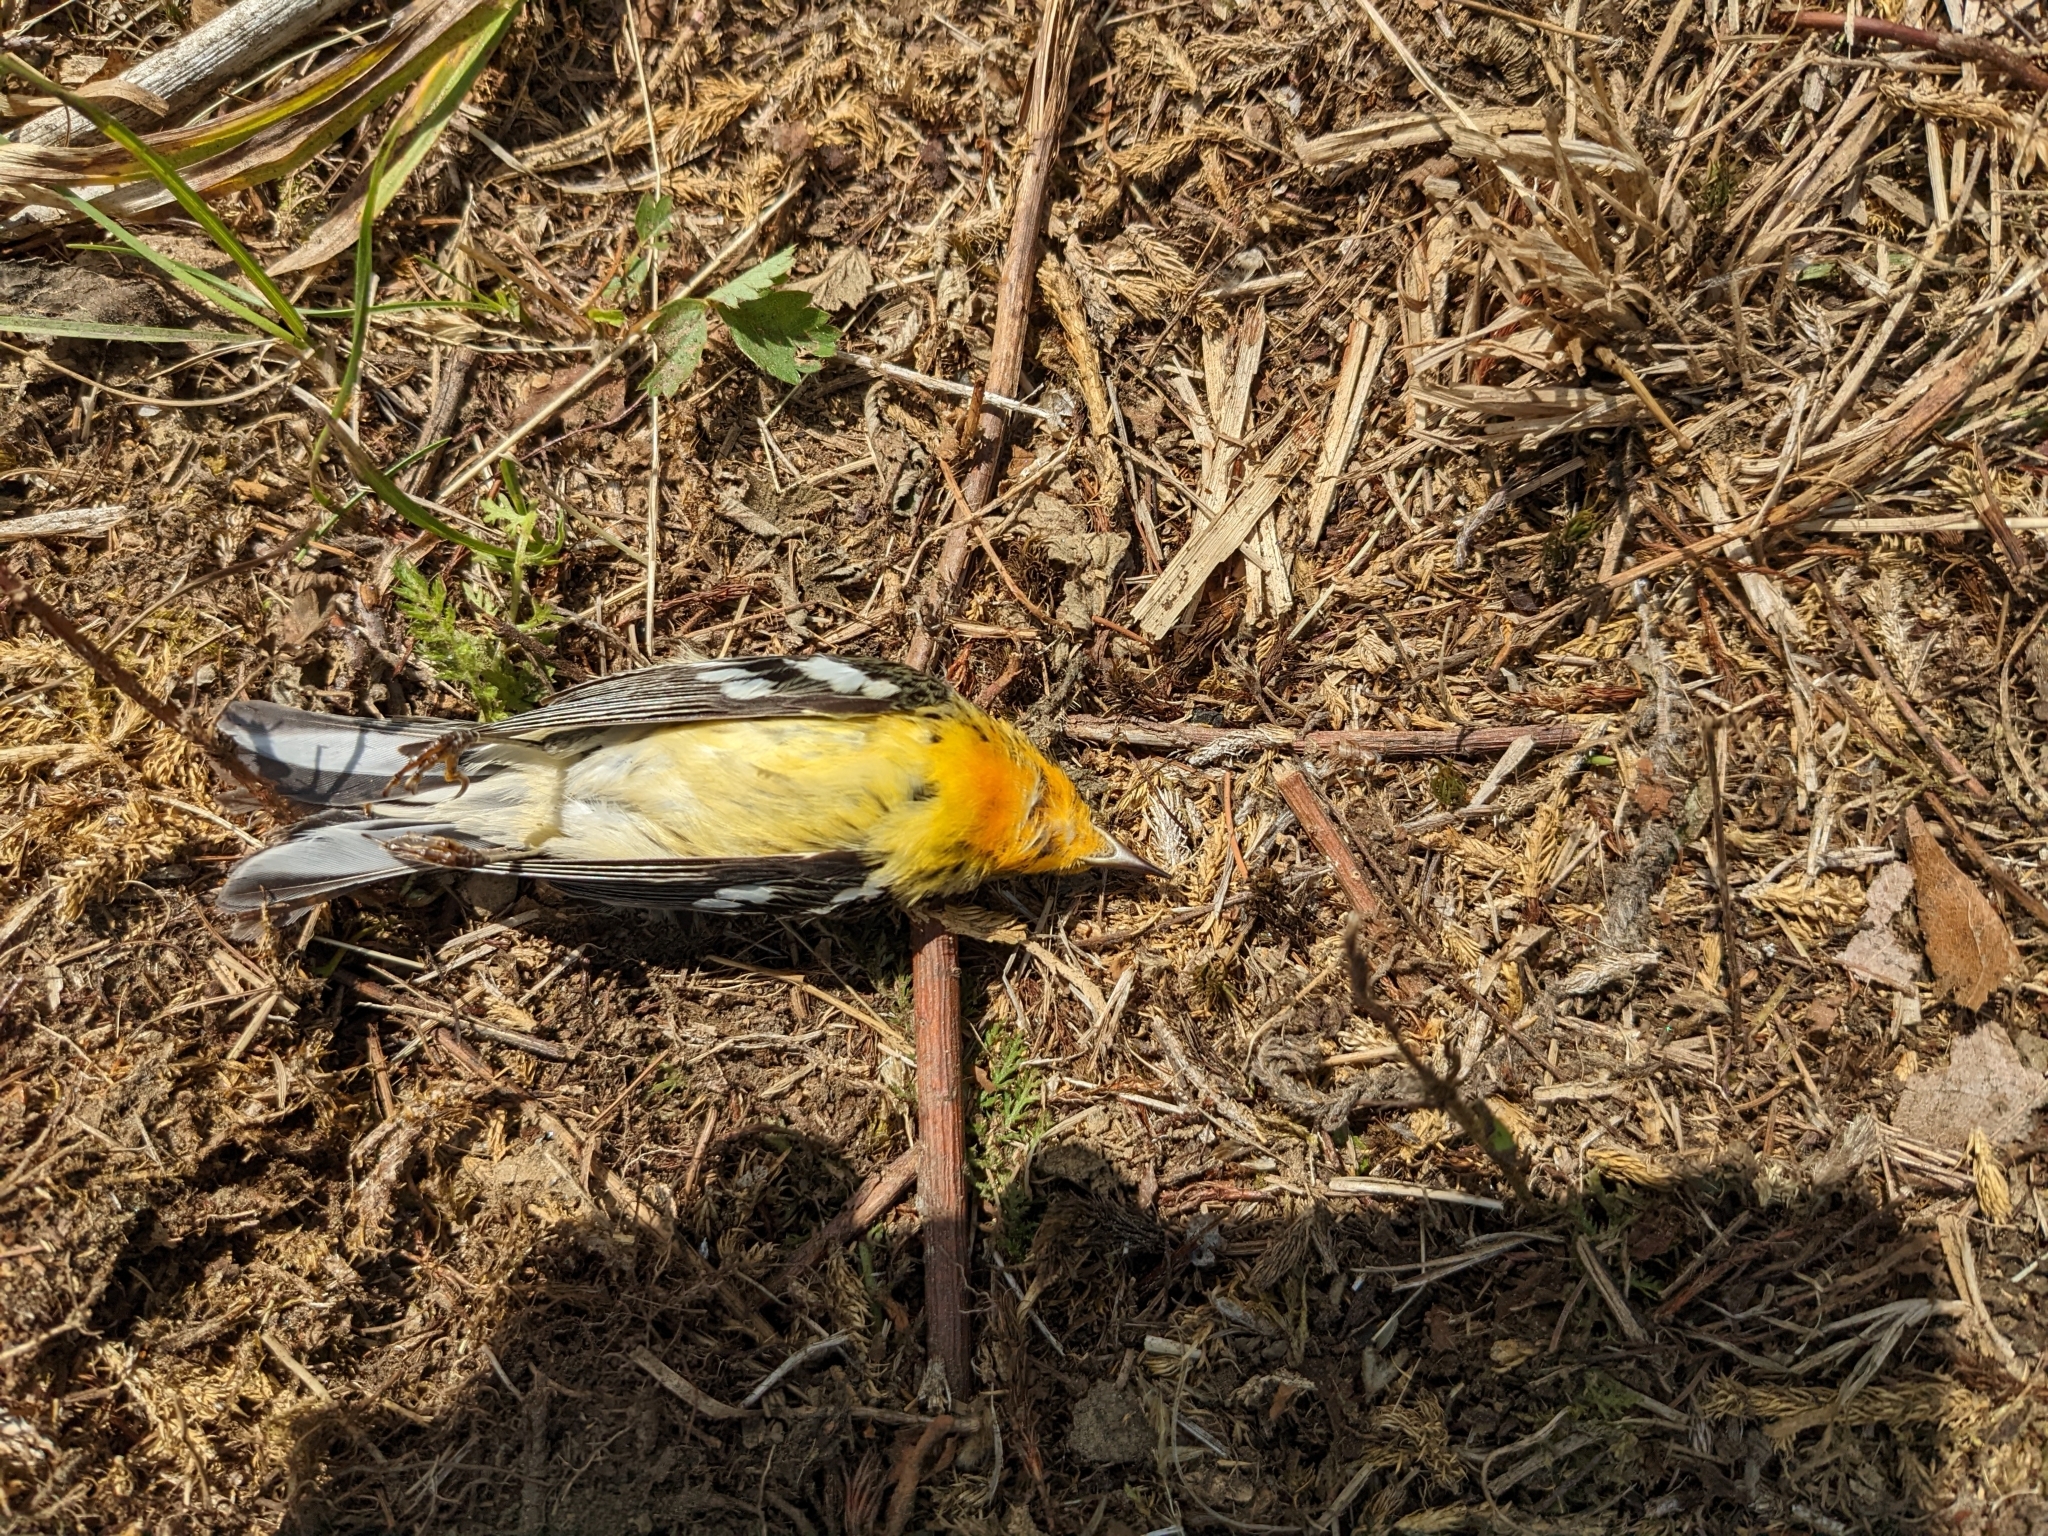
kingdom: Animalia
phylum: Chordata
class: Aves
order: Passeriformes
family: Parulidae
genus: Setophaga
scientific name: Setophaga fusca
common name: Blackburnian warbler
